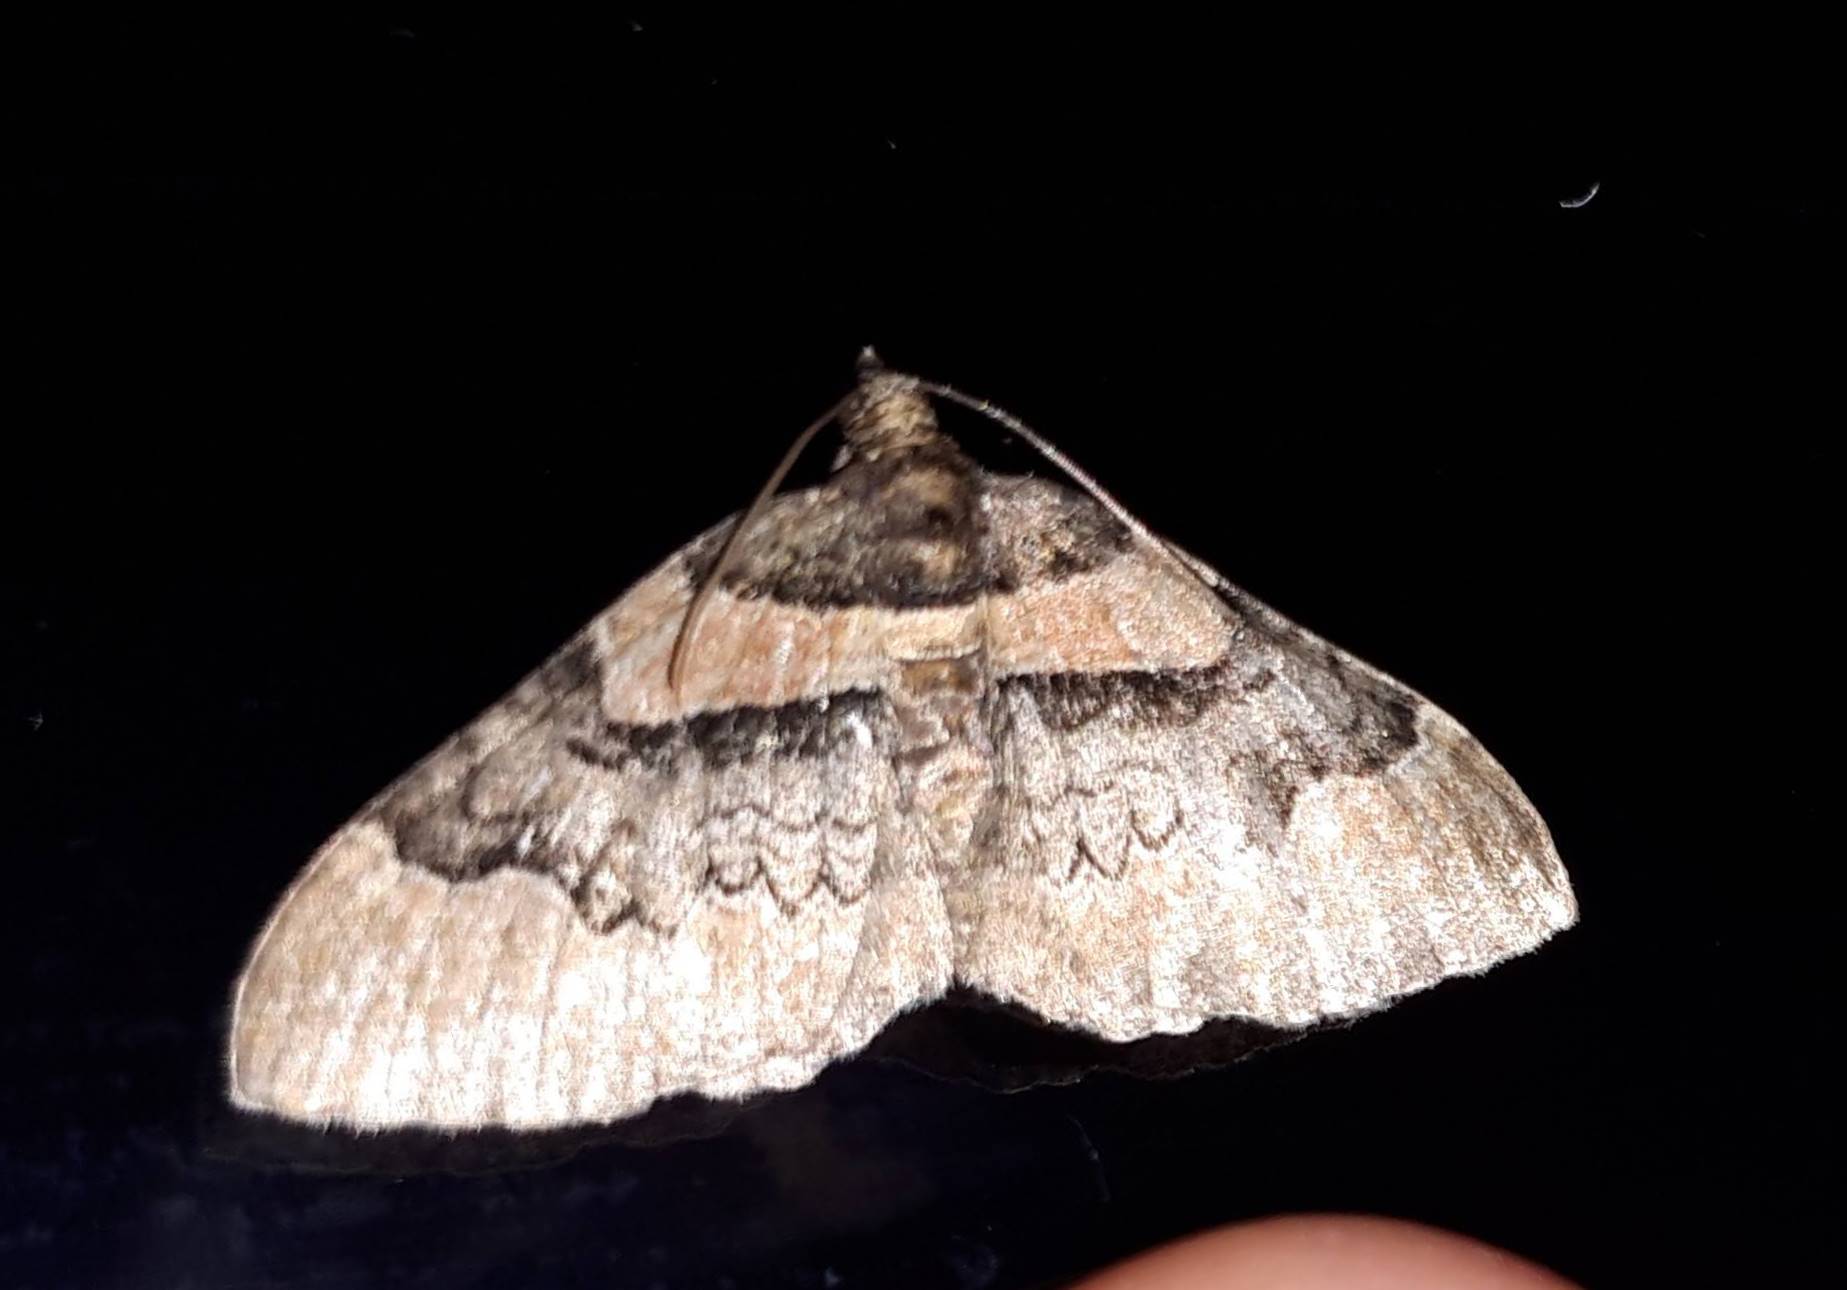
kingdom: Animalia
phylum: Arthropoda
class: Insecta
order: Lepidoptera
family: Geometridae
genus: Catarhoe
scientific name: Catarhoe rubidata
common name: Ruddy carpet
